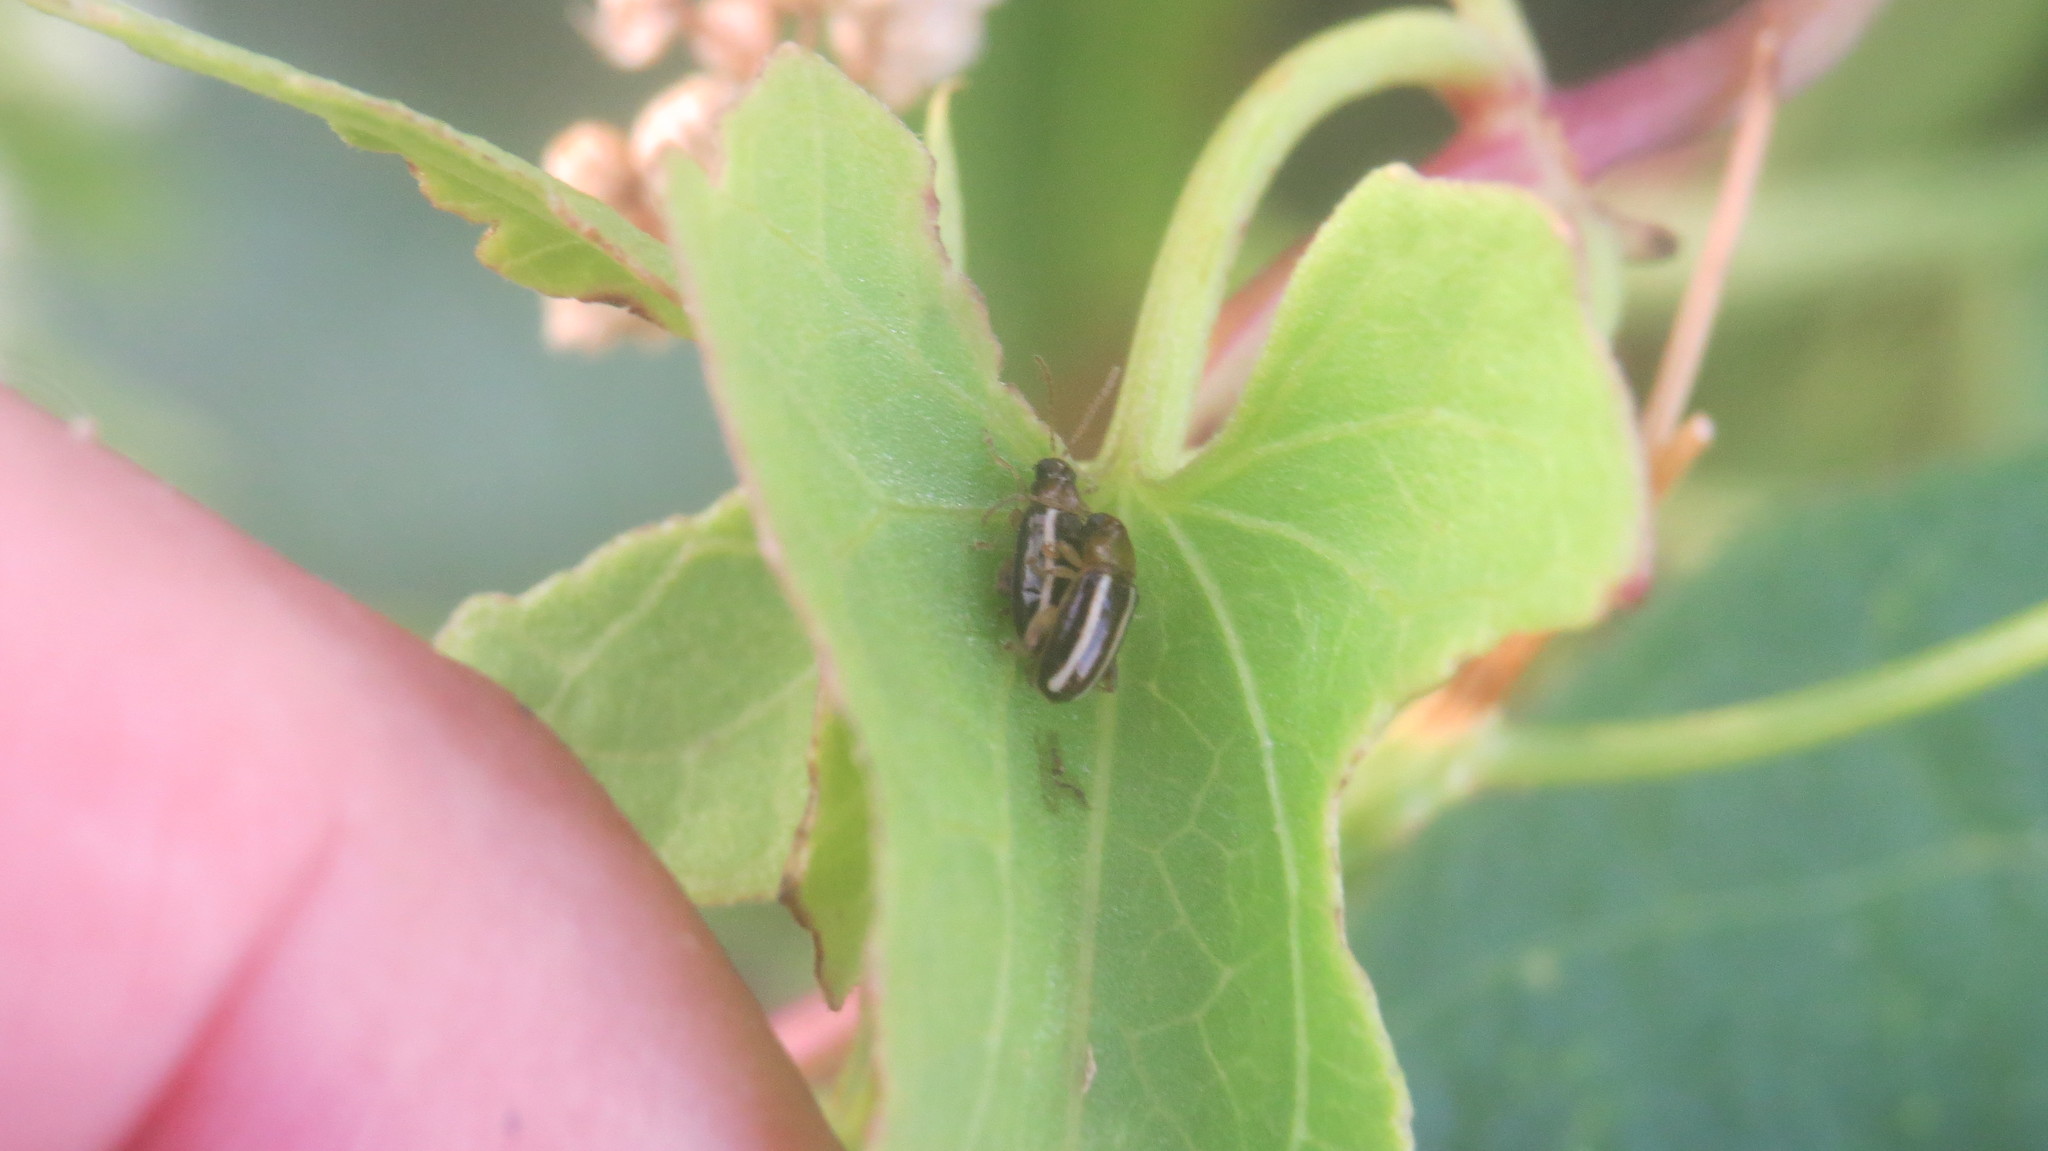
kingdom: Animalia
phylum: Arthropoda
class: Insecta
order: Coleoptera
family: Chrysomelidae
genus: Systena
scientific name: Systena
